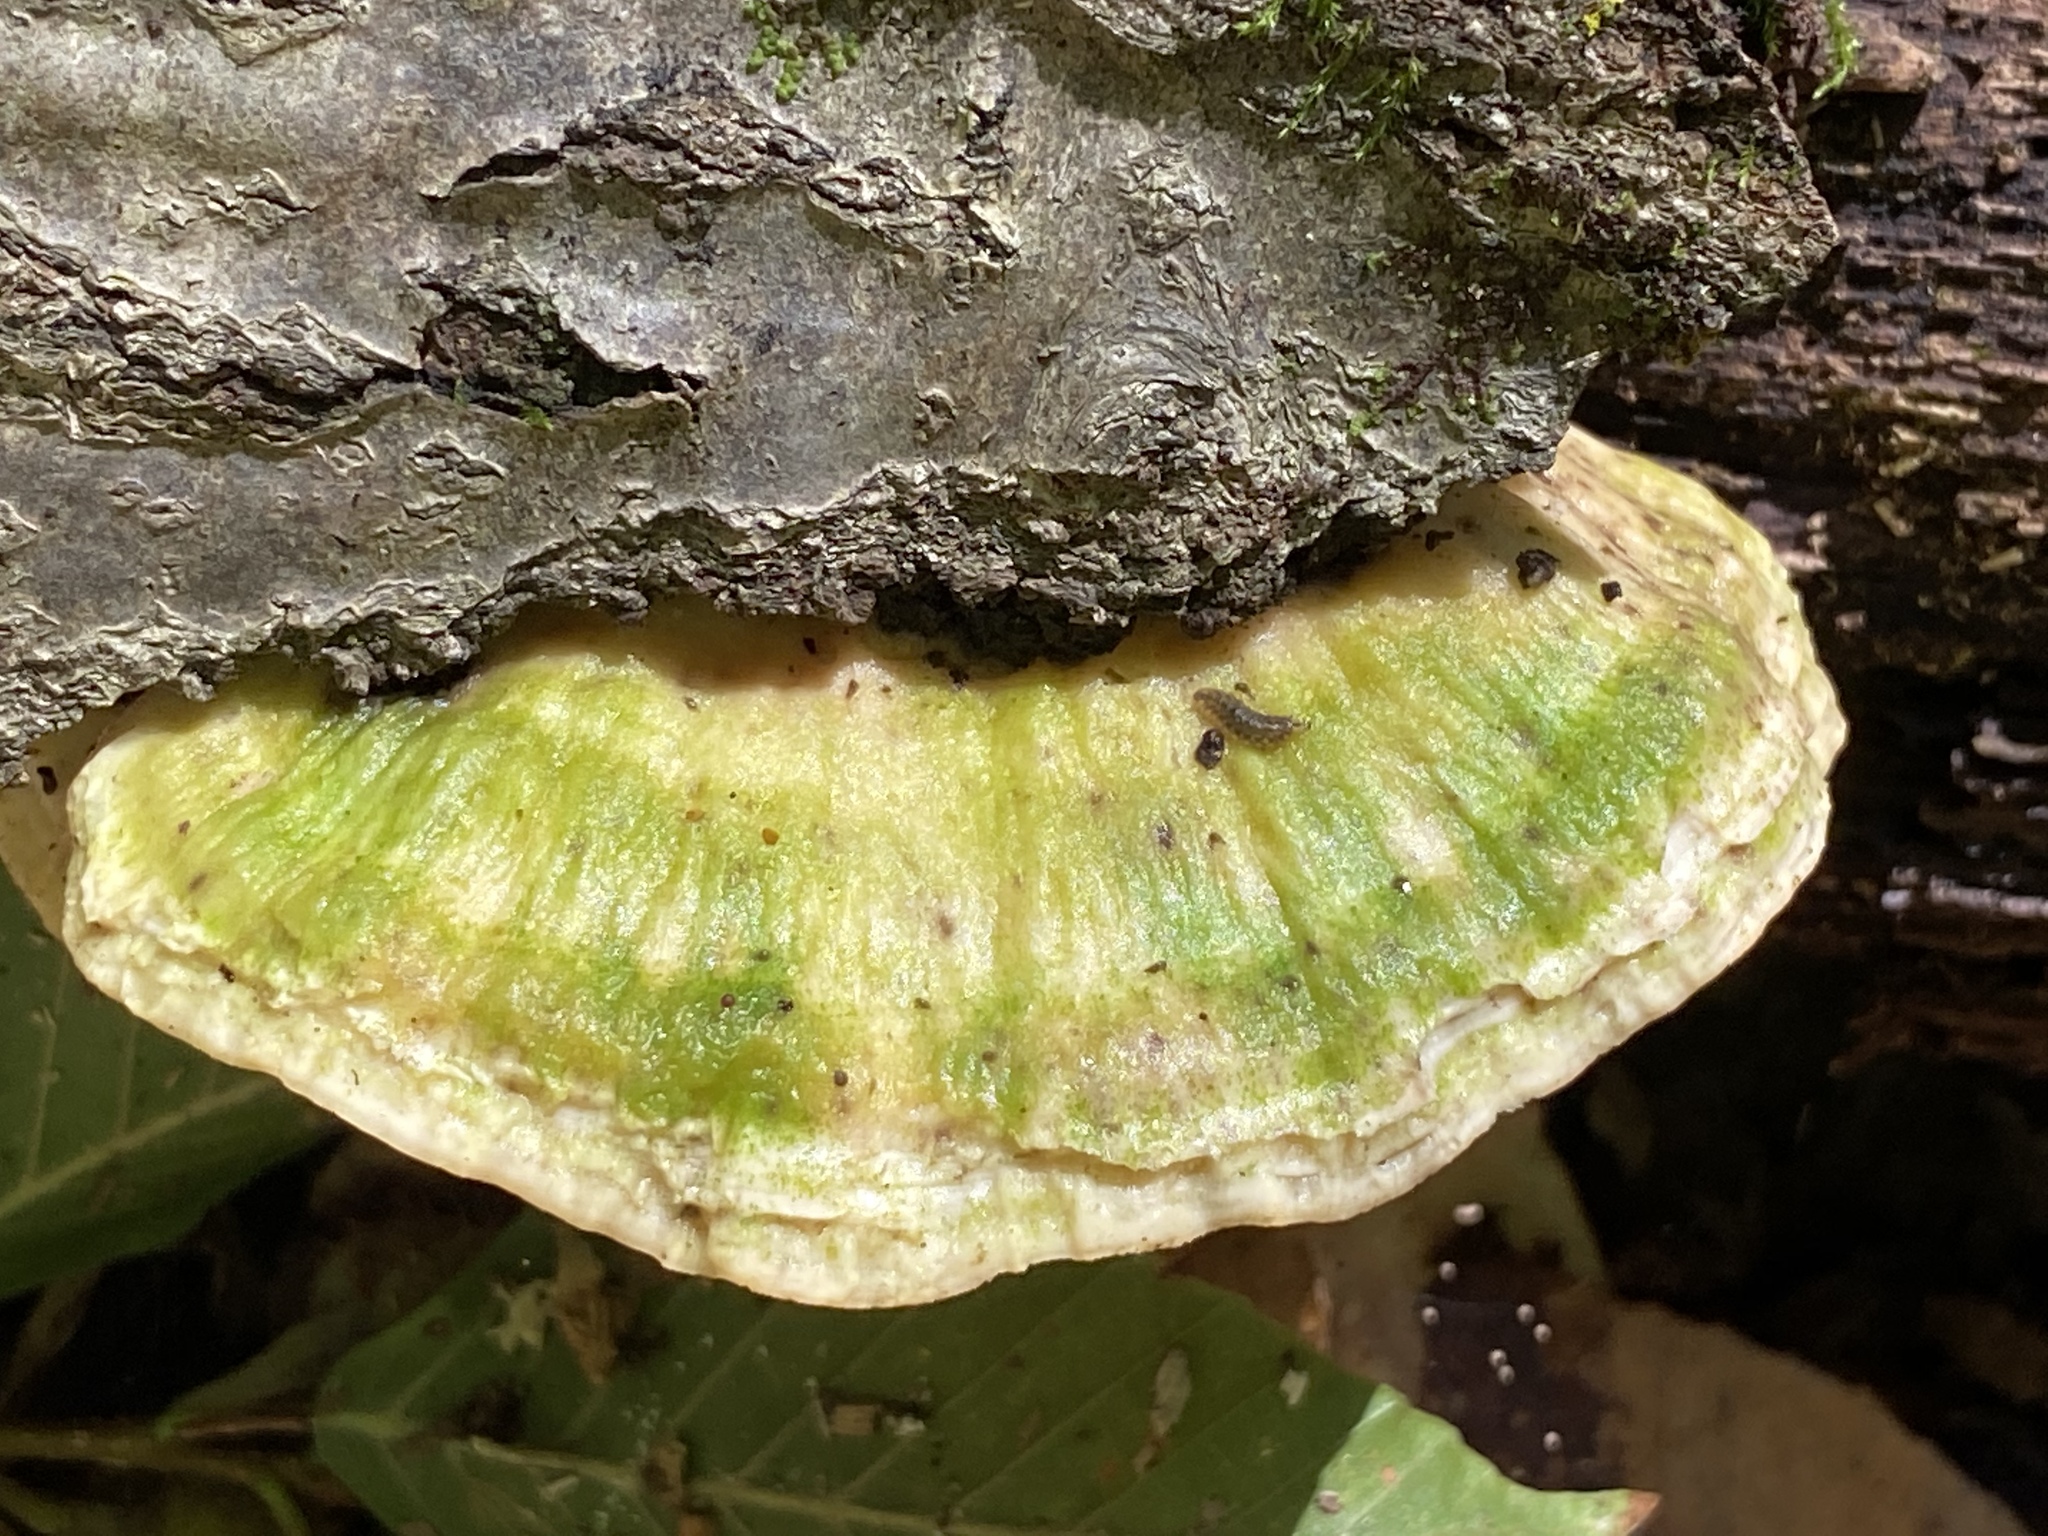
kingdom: Fungi
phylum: Basidiomycota
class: Agaricomycetes
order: Polyporales
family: Polyporaceae
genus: Trametes
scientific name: Trametes lactinea
